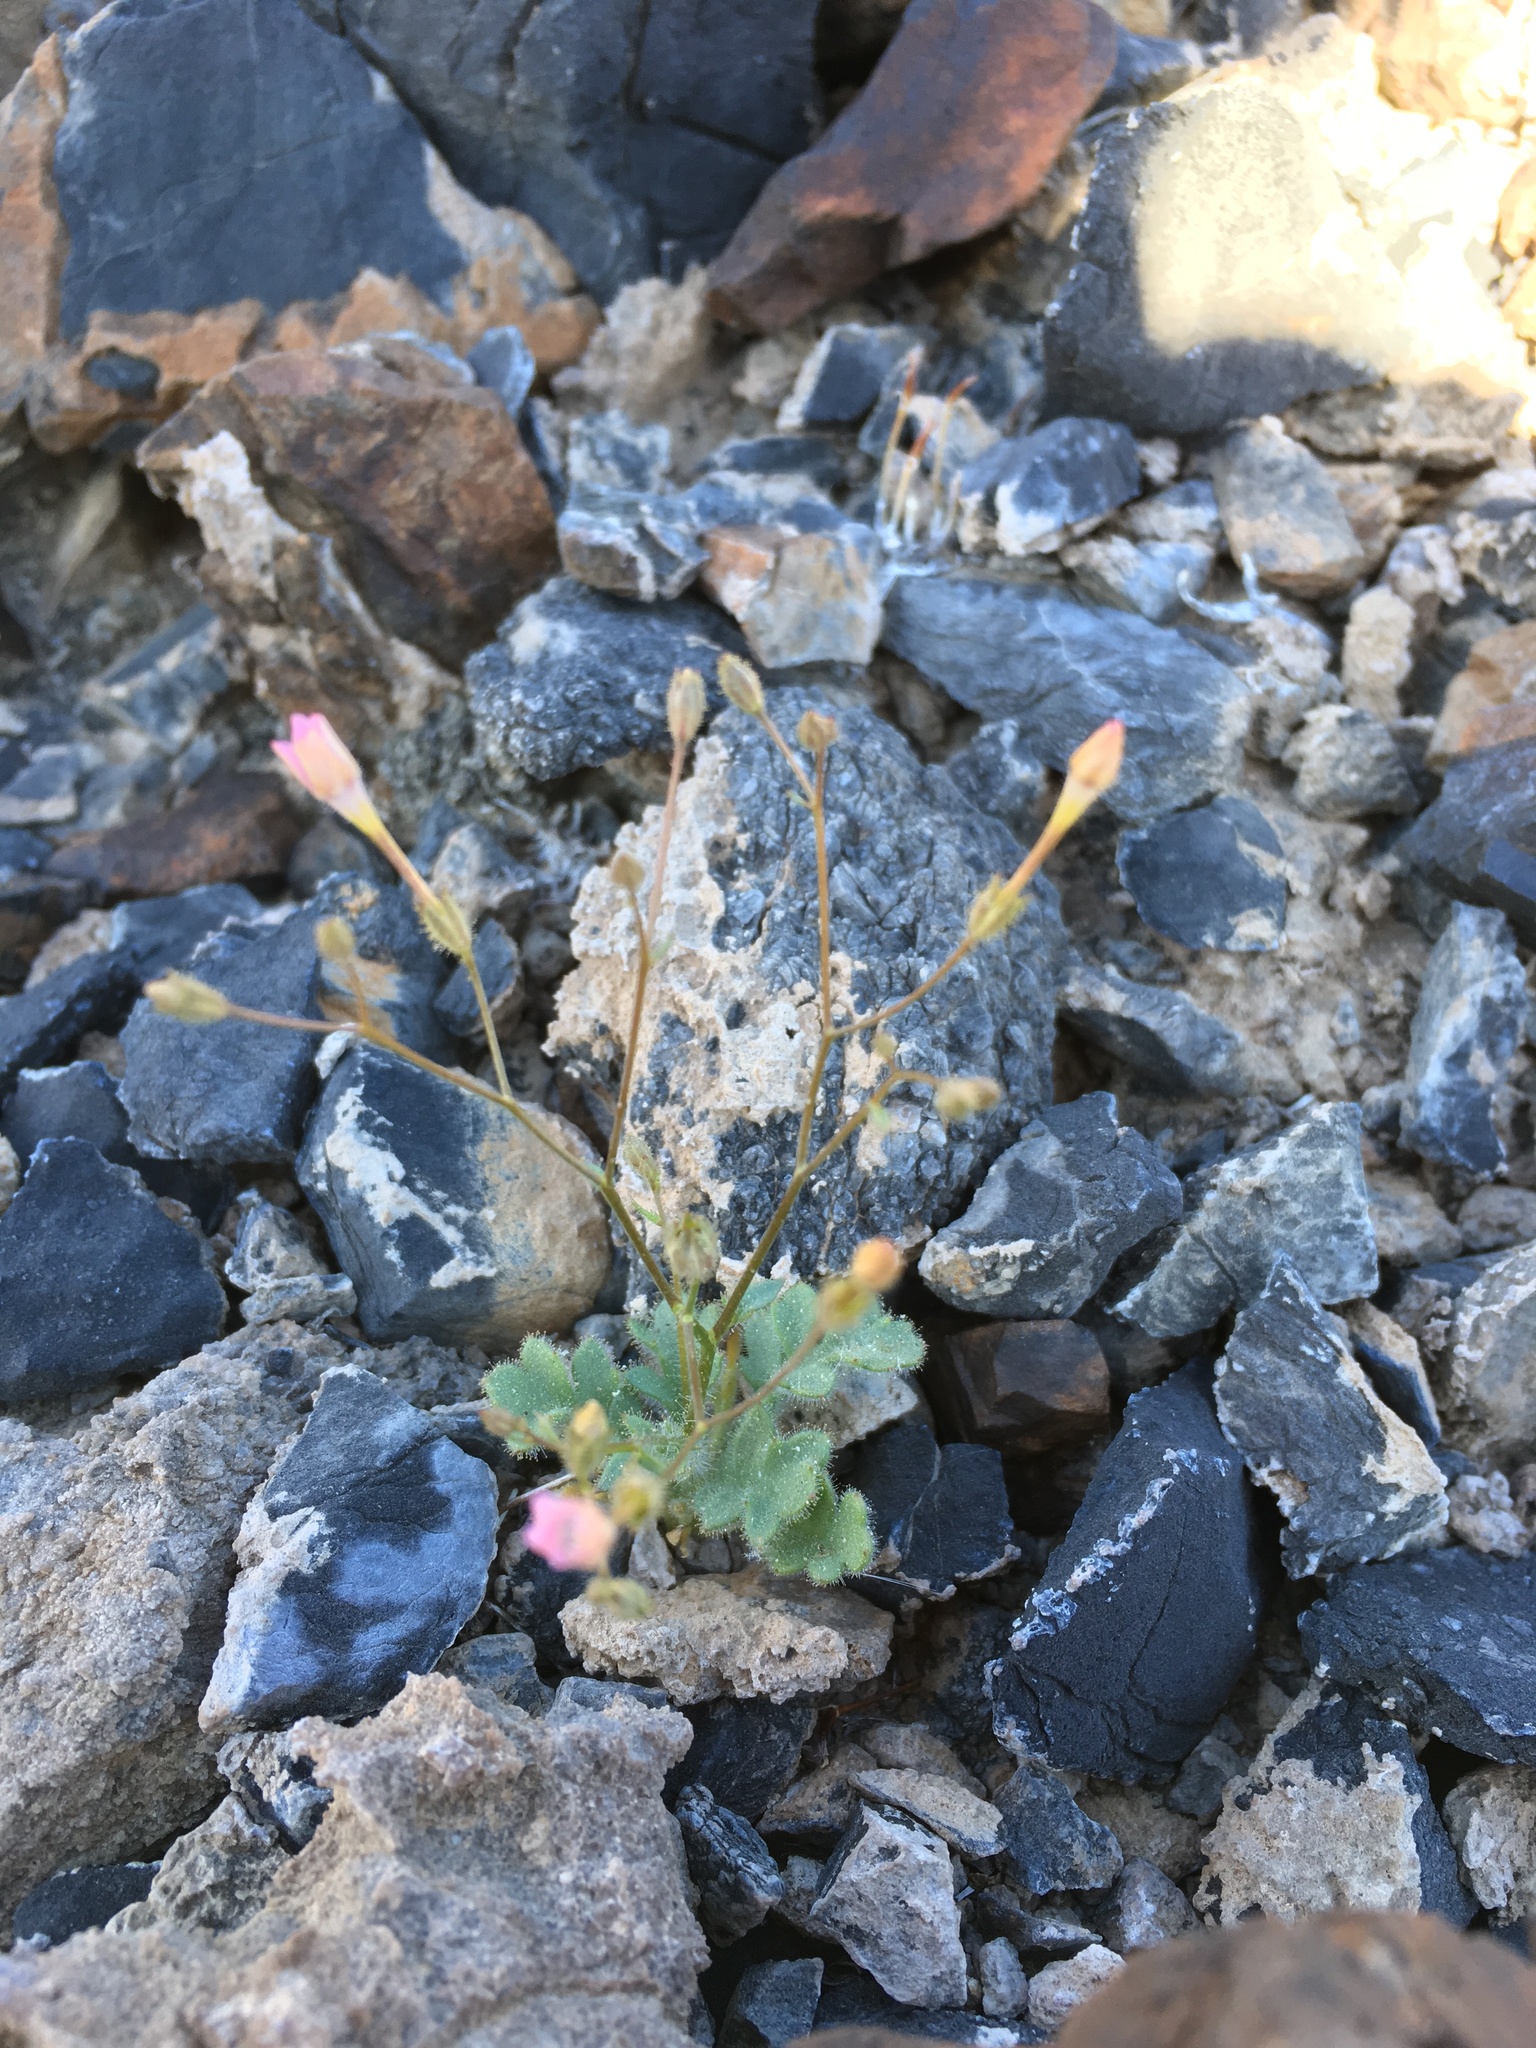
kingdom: Plantae
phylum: Tracheophyta
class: Magnoliopsida
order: Ericales
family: Polemoniaceae
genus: Gilia
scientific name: Gilia scopulorum
